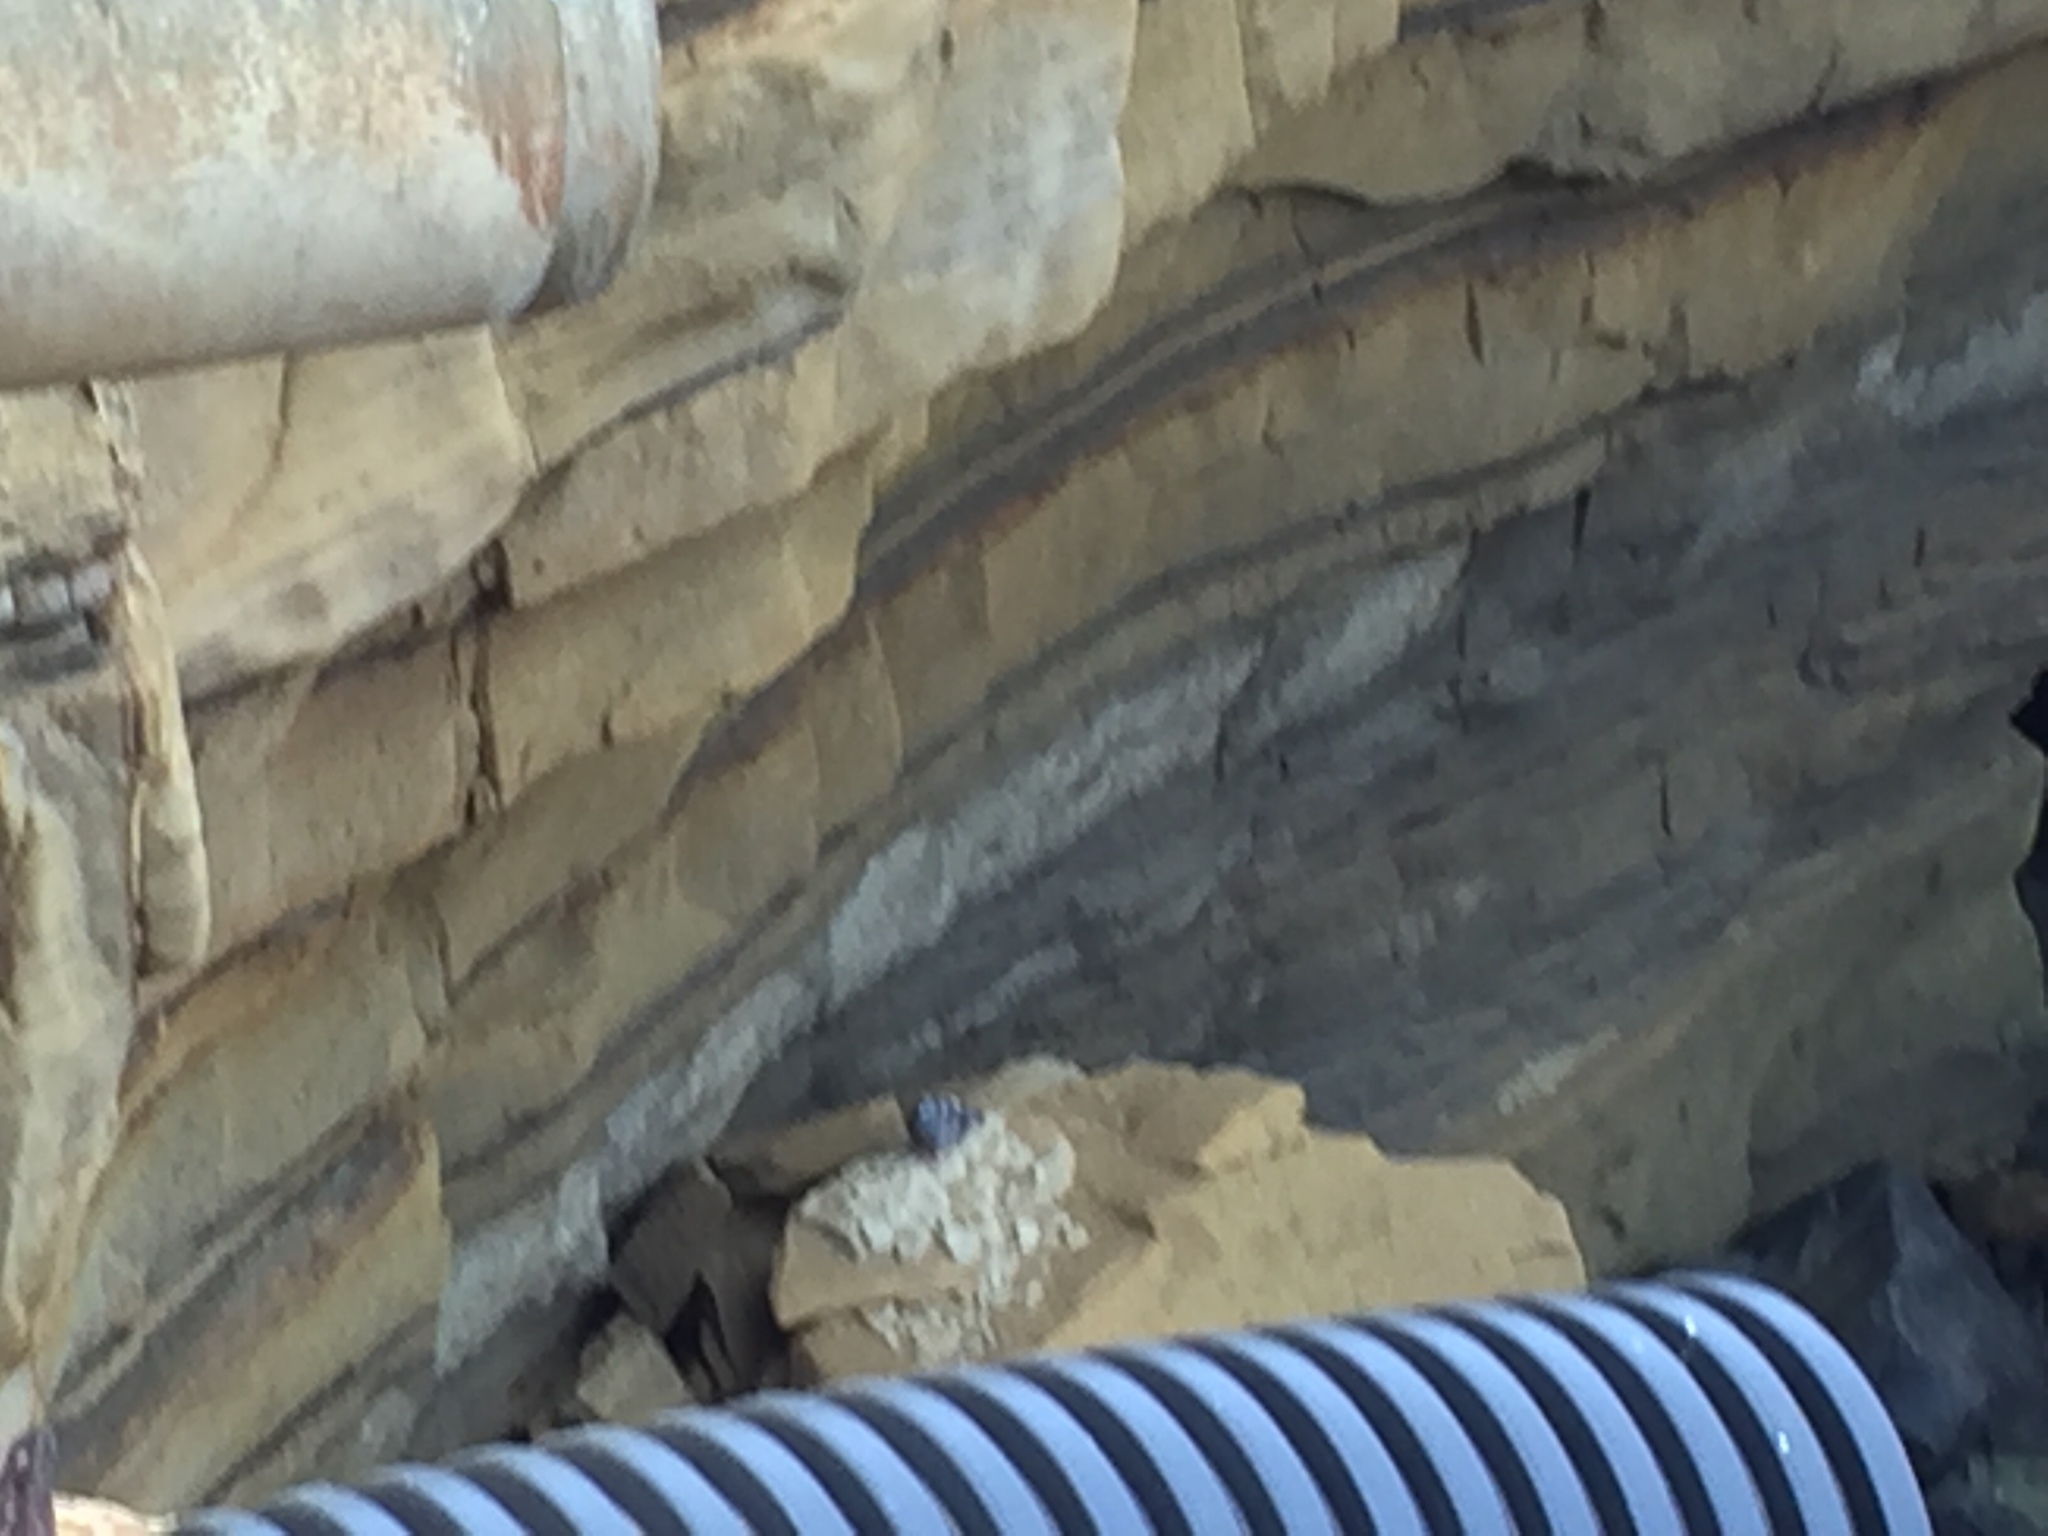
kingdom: Animalia
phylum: Chordata
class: Aves
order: Columbiformes
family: Columbidae
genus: Columba
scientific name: Columba livia
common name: Rock pigeon
